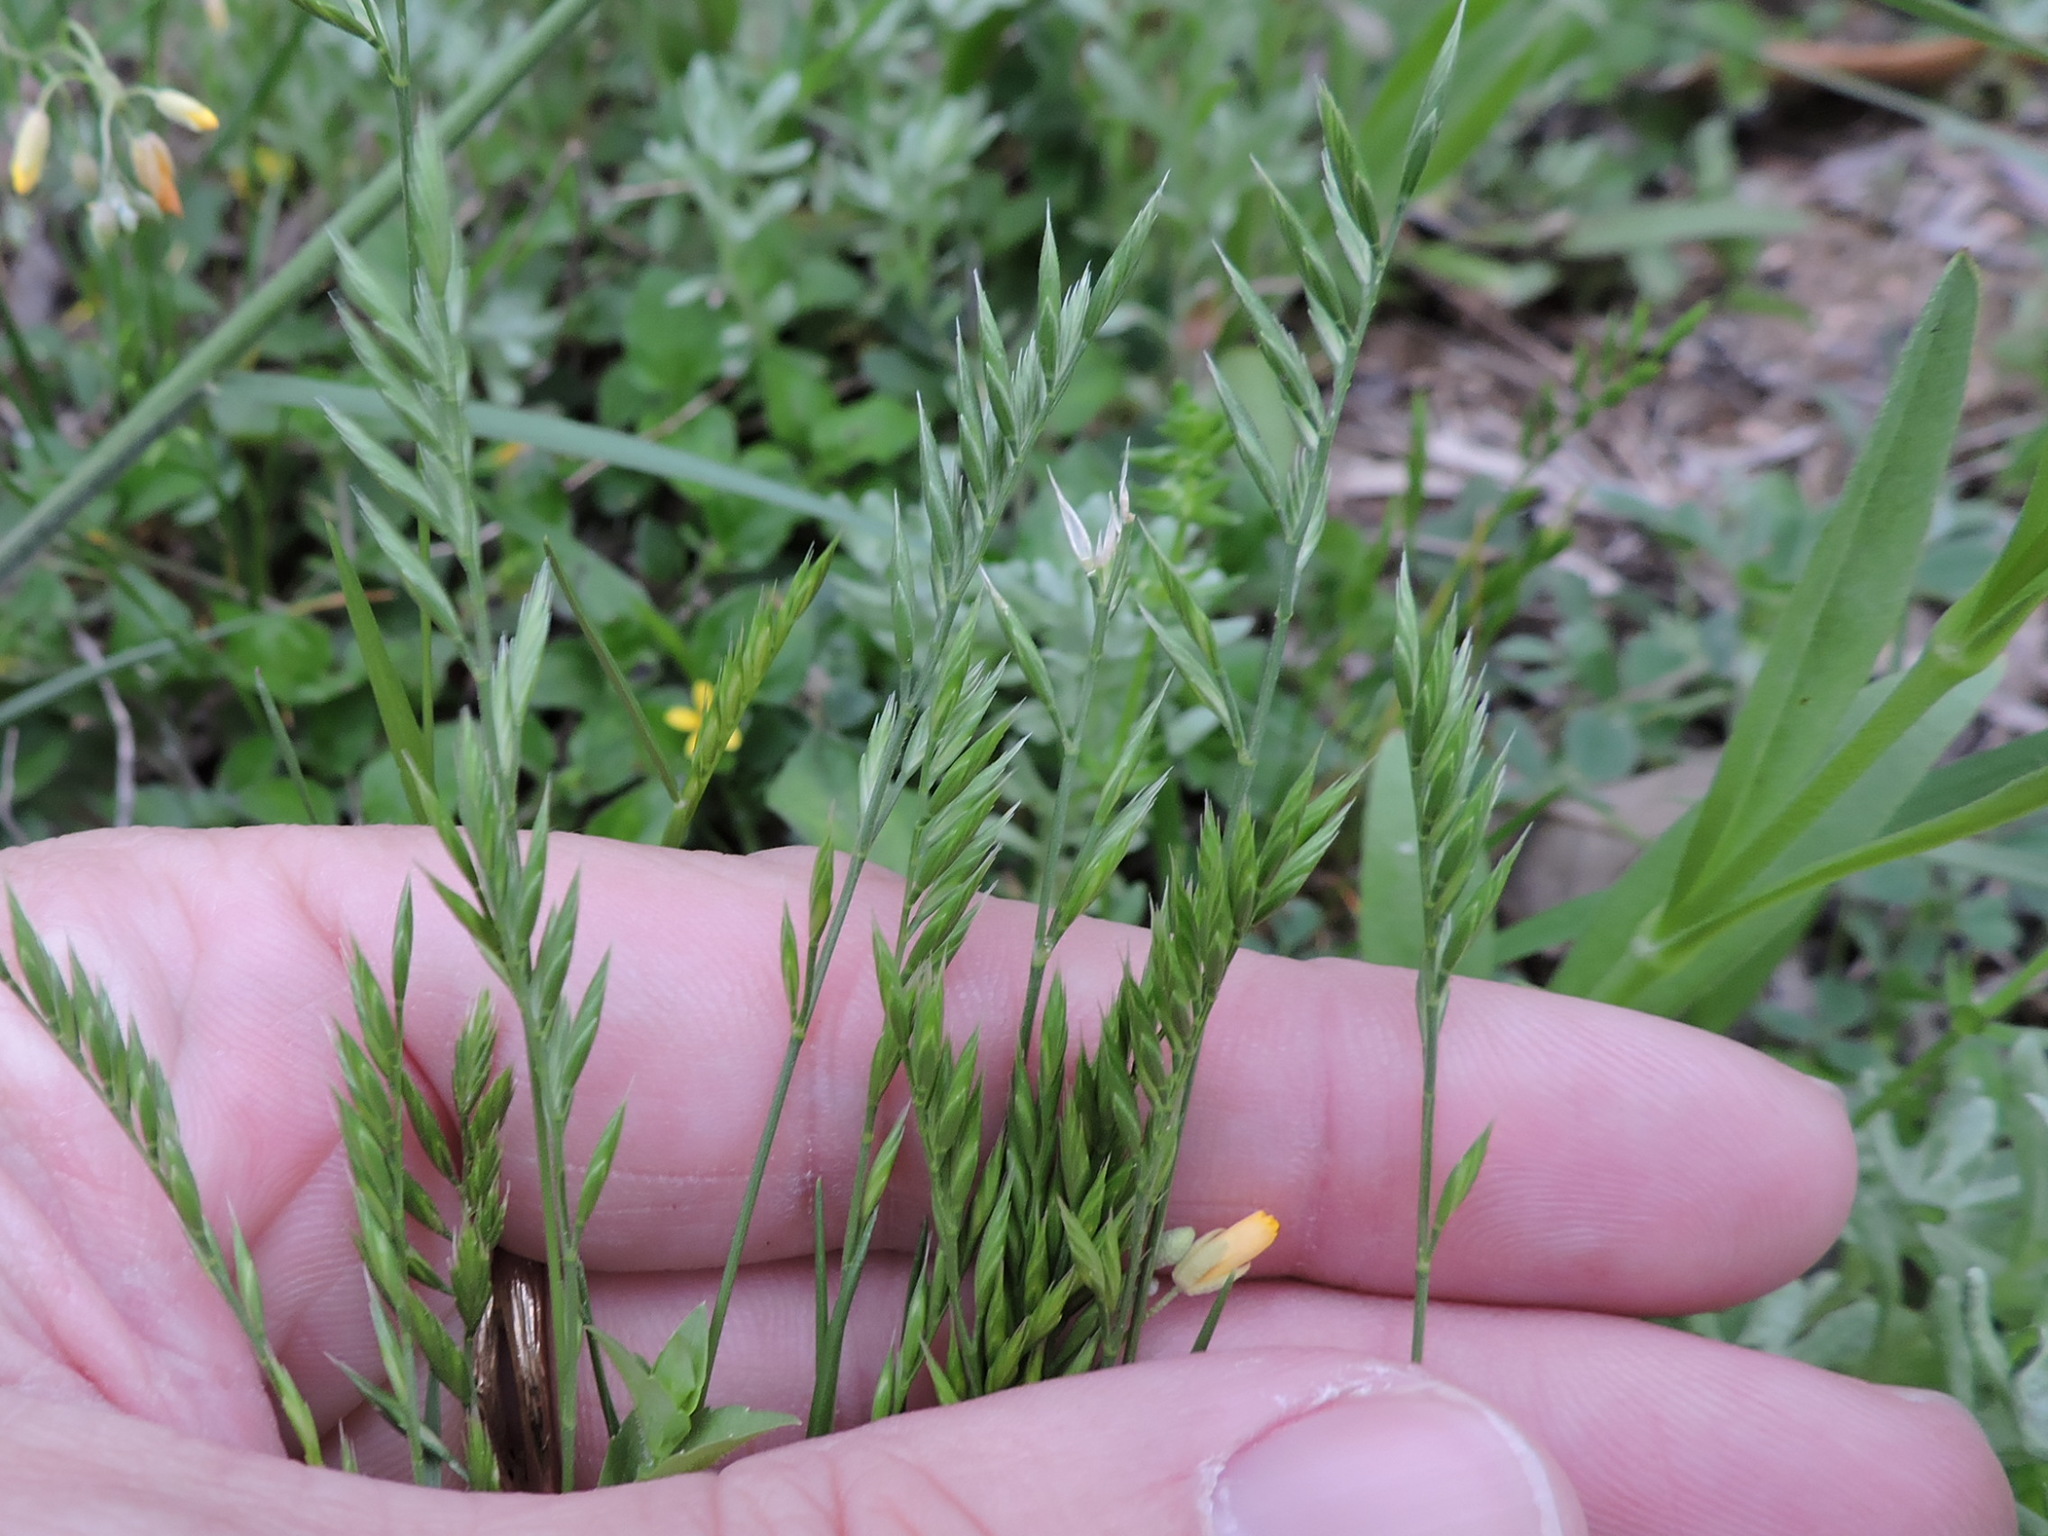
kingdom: Plantae
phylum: Tracheophyta
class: Liliopsida
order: Poales
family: Poaceae
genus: Catapodium
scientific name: Catapodium rigidum
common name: Fern-grass
